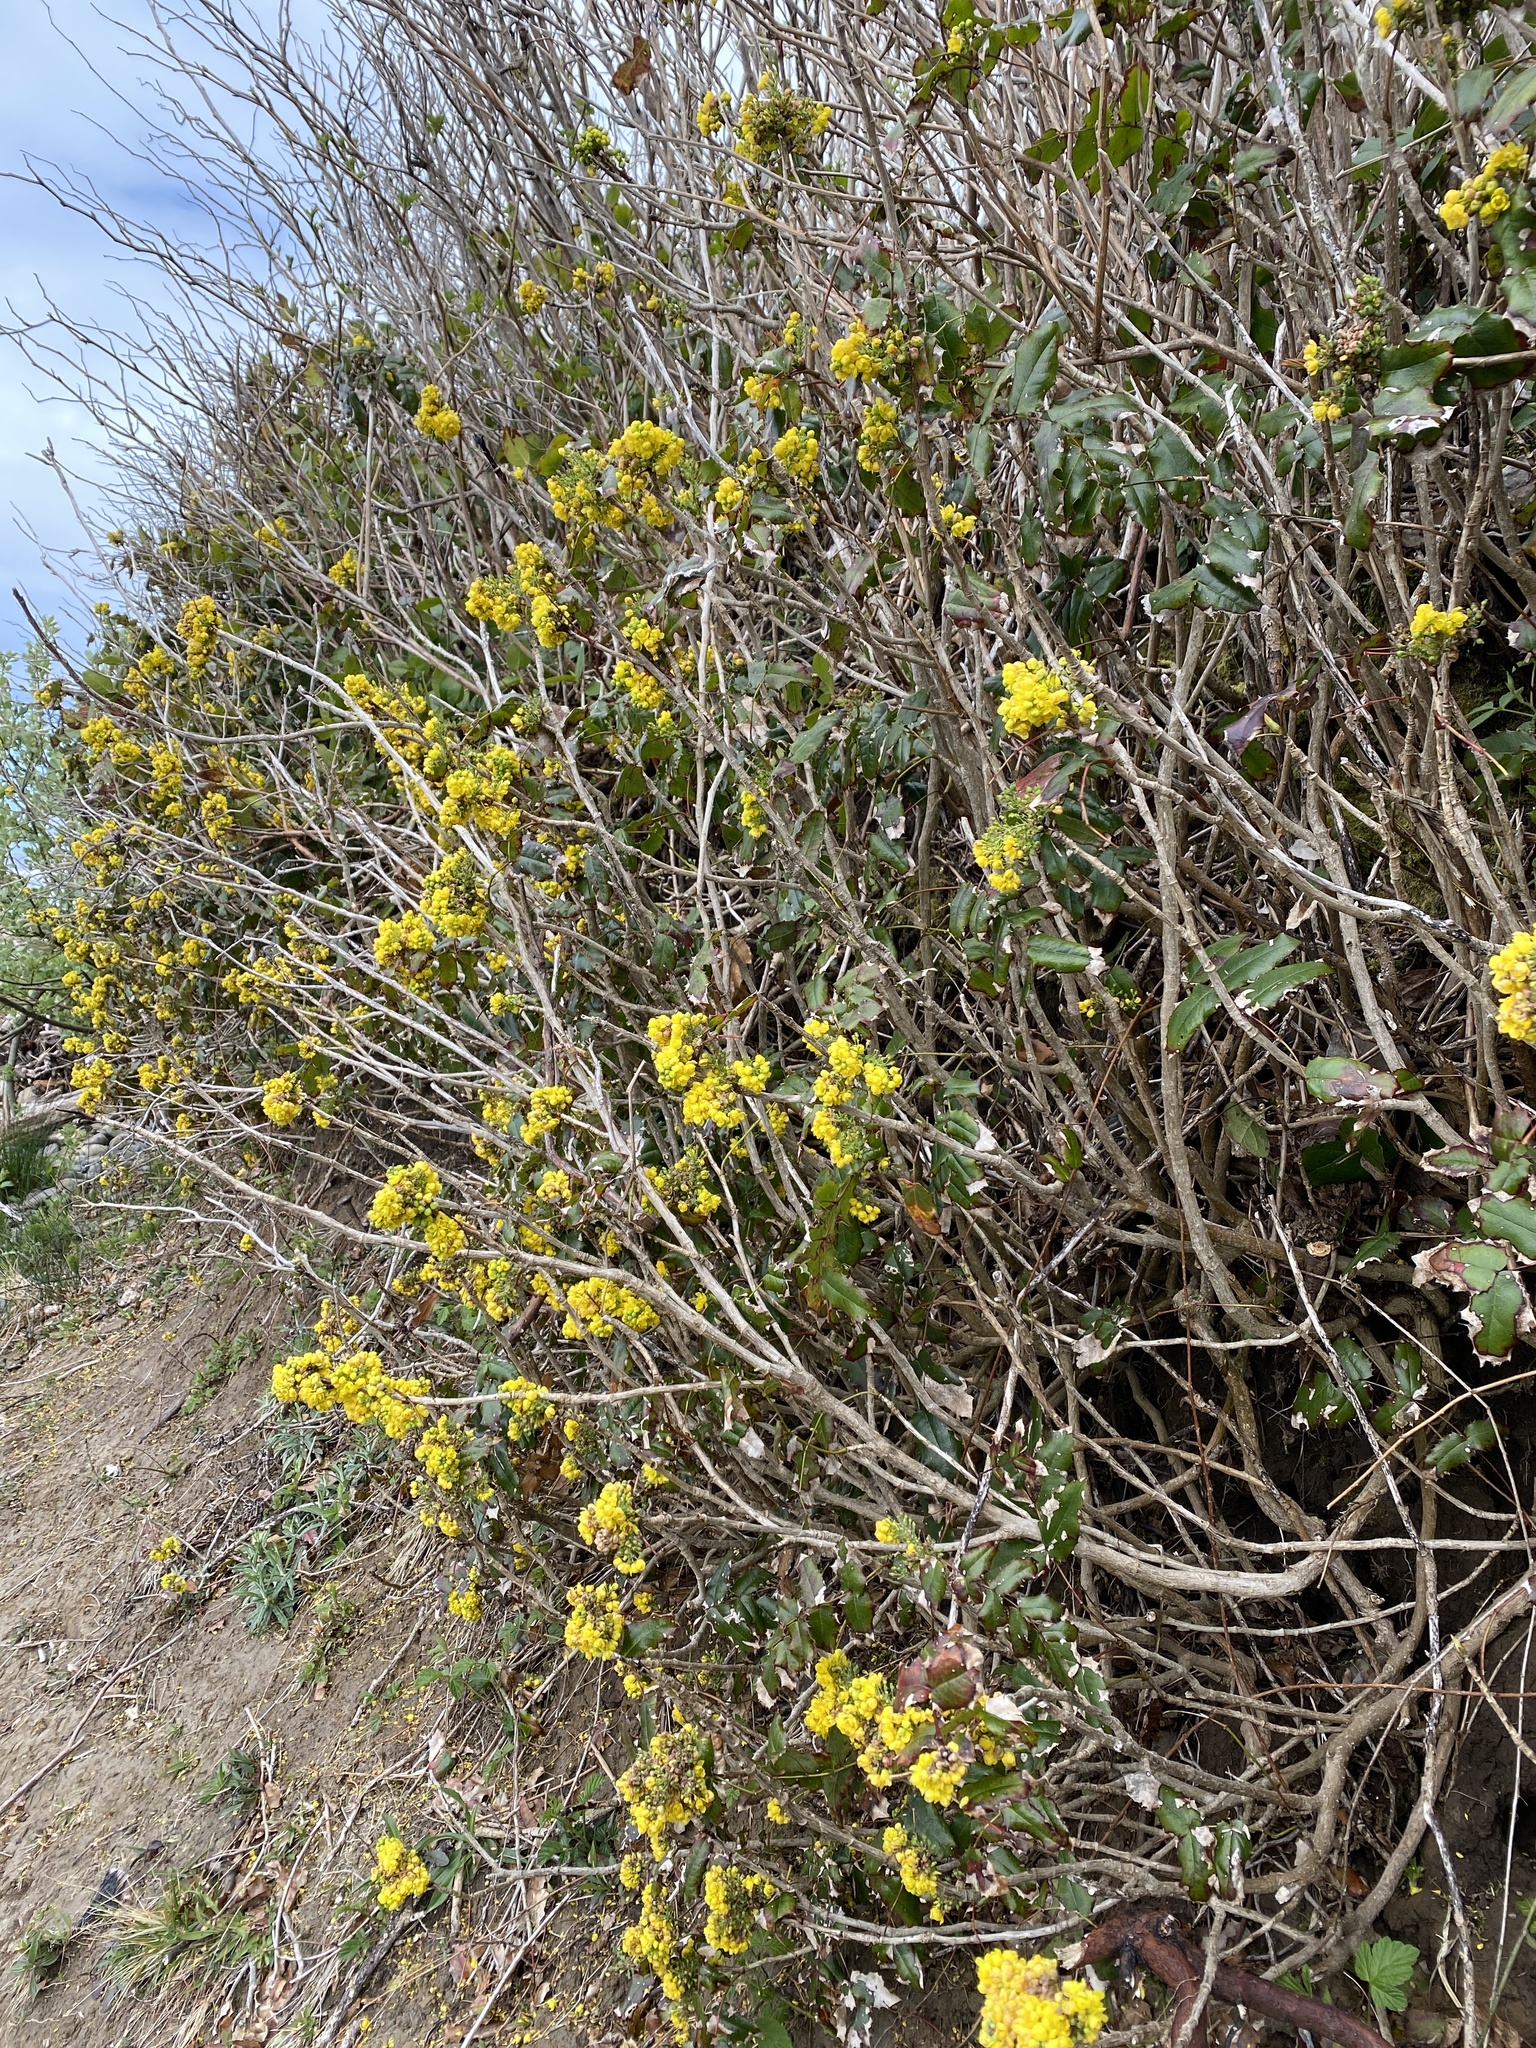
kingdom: Plantae
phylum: Tracheophyta
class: Magnoliopsida
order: Ranunculales
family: Berberidaceae
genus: Mahonia
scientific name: Mahonia aquifolium
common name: Oregon-grape
